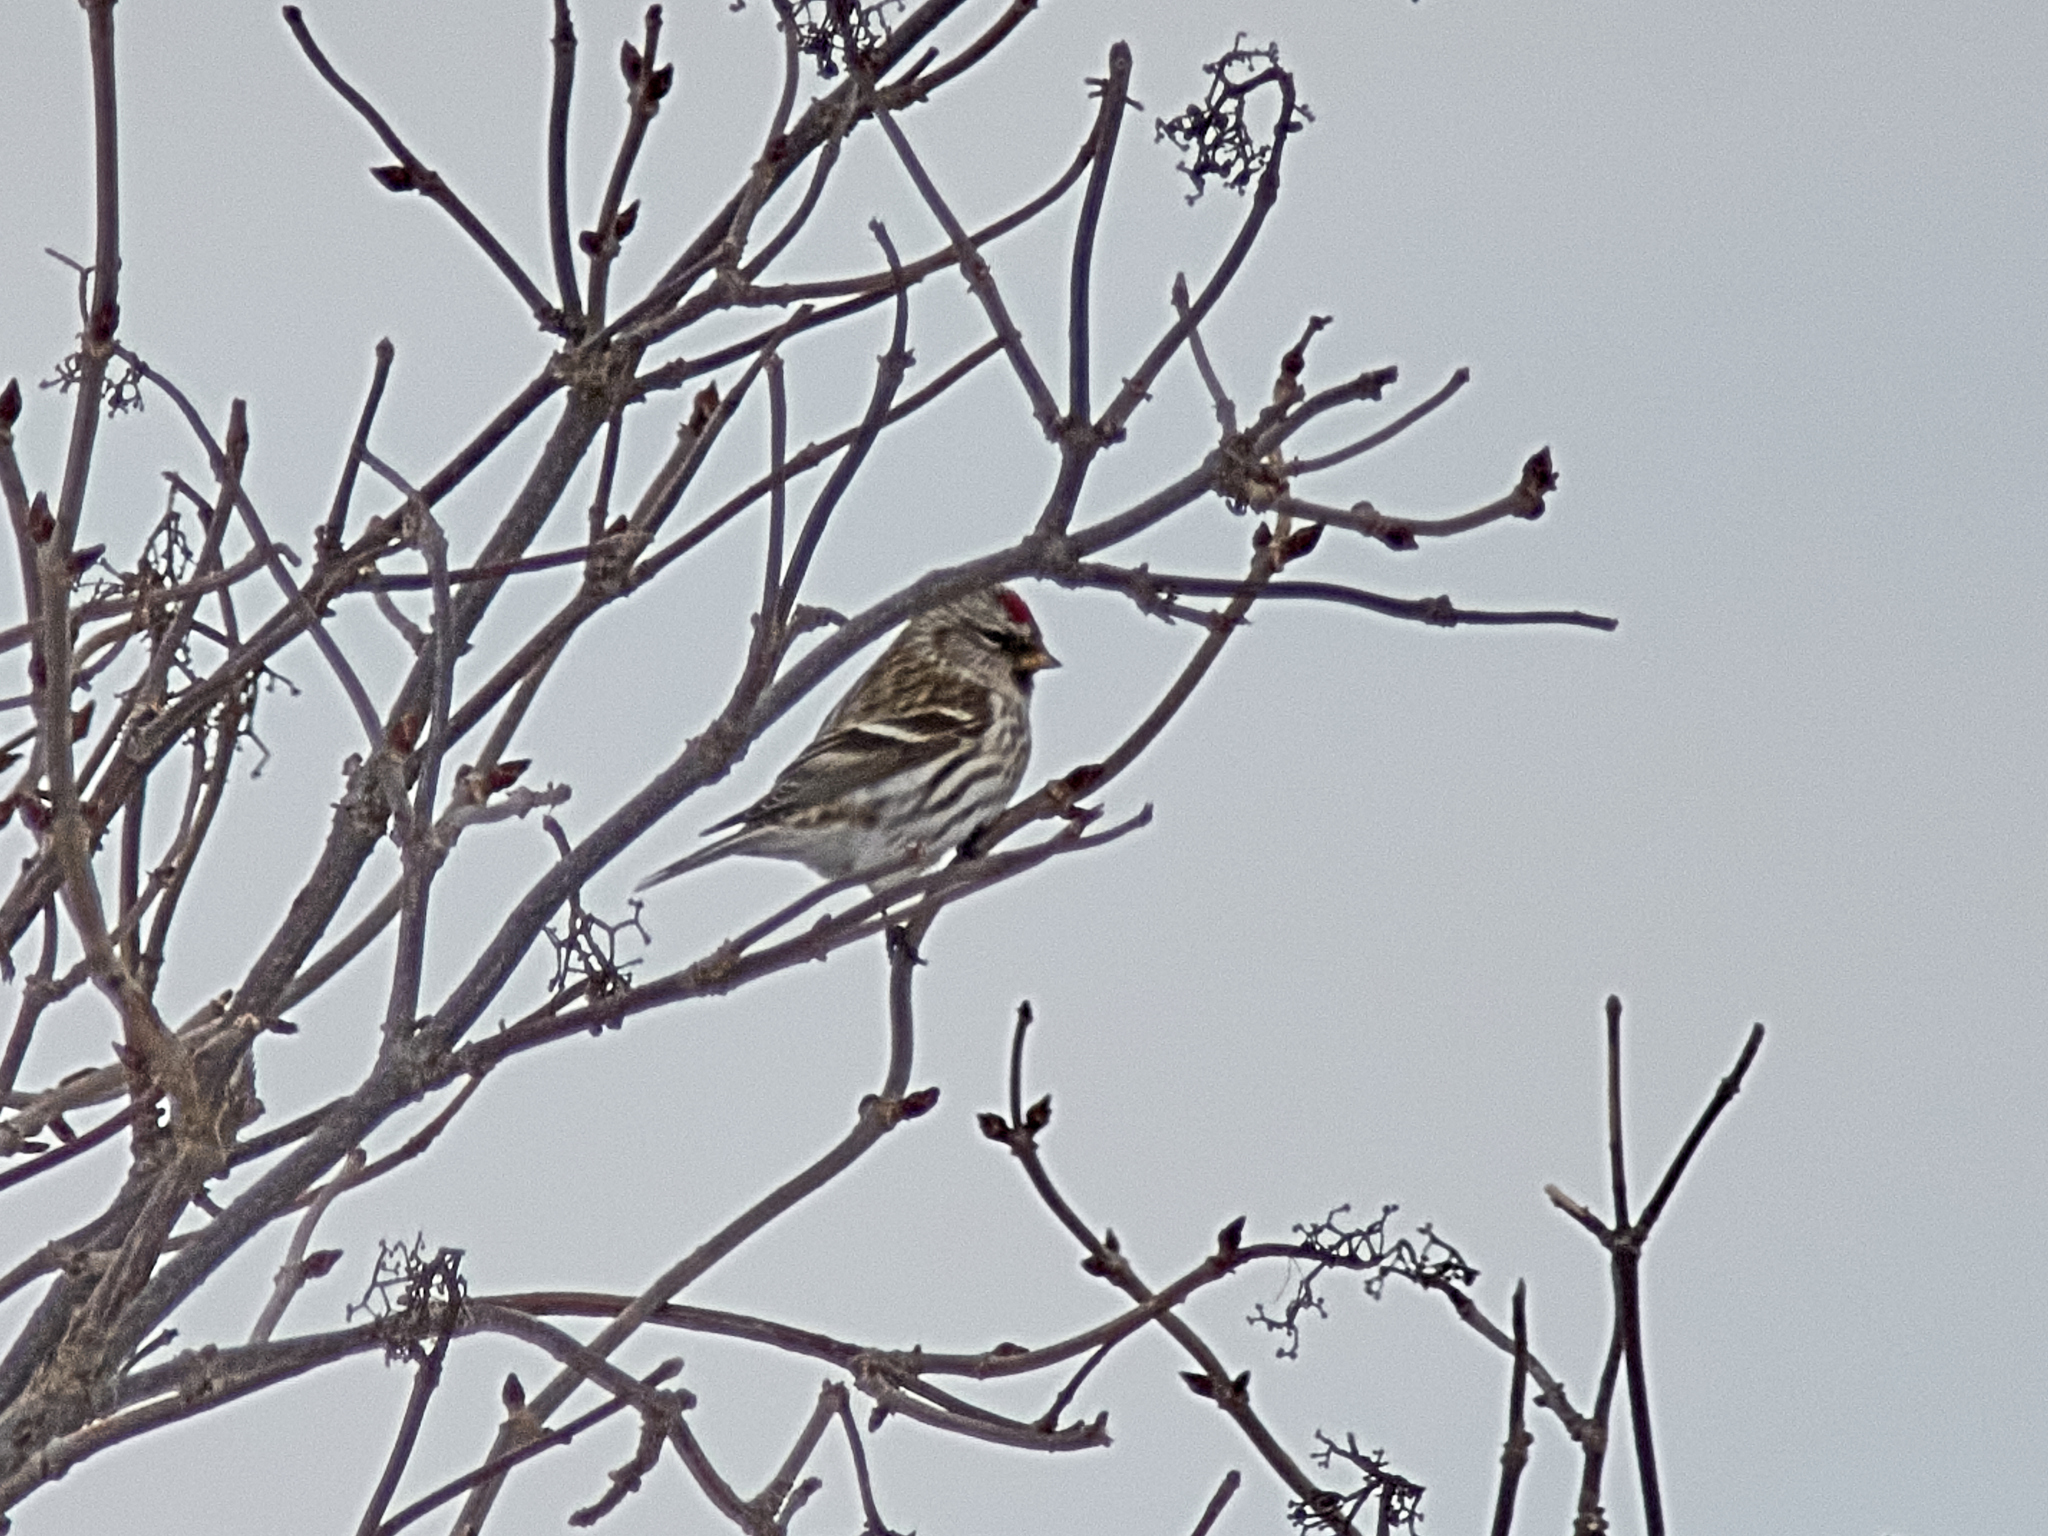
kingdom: Animalia
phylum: Chordata
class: Aves
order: Passeriformes
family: Fringillidae
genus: Acanthis
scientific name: Acanthis flammea
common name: Common redpoll
